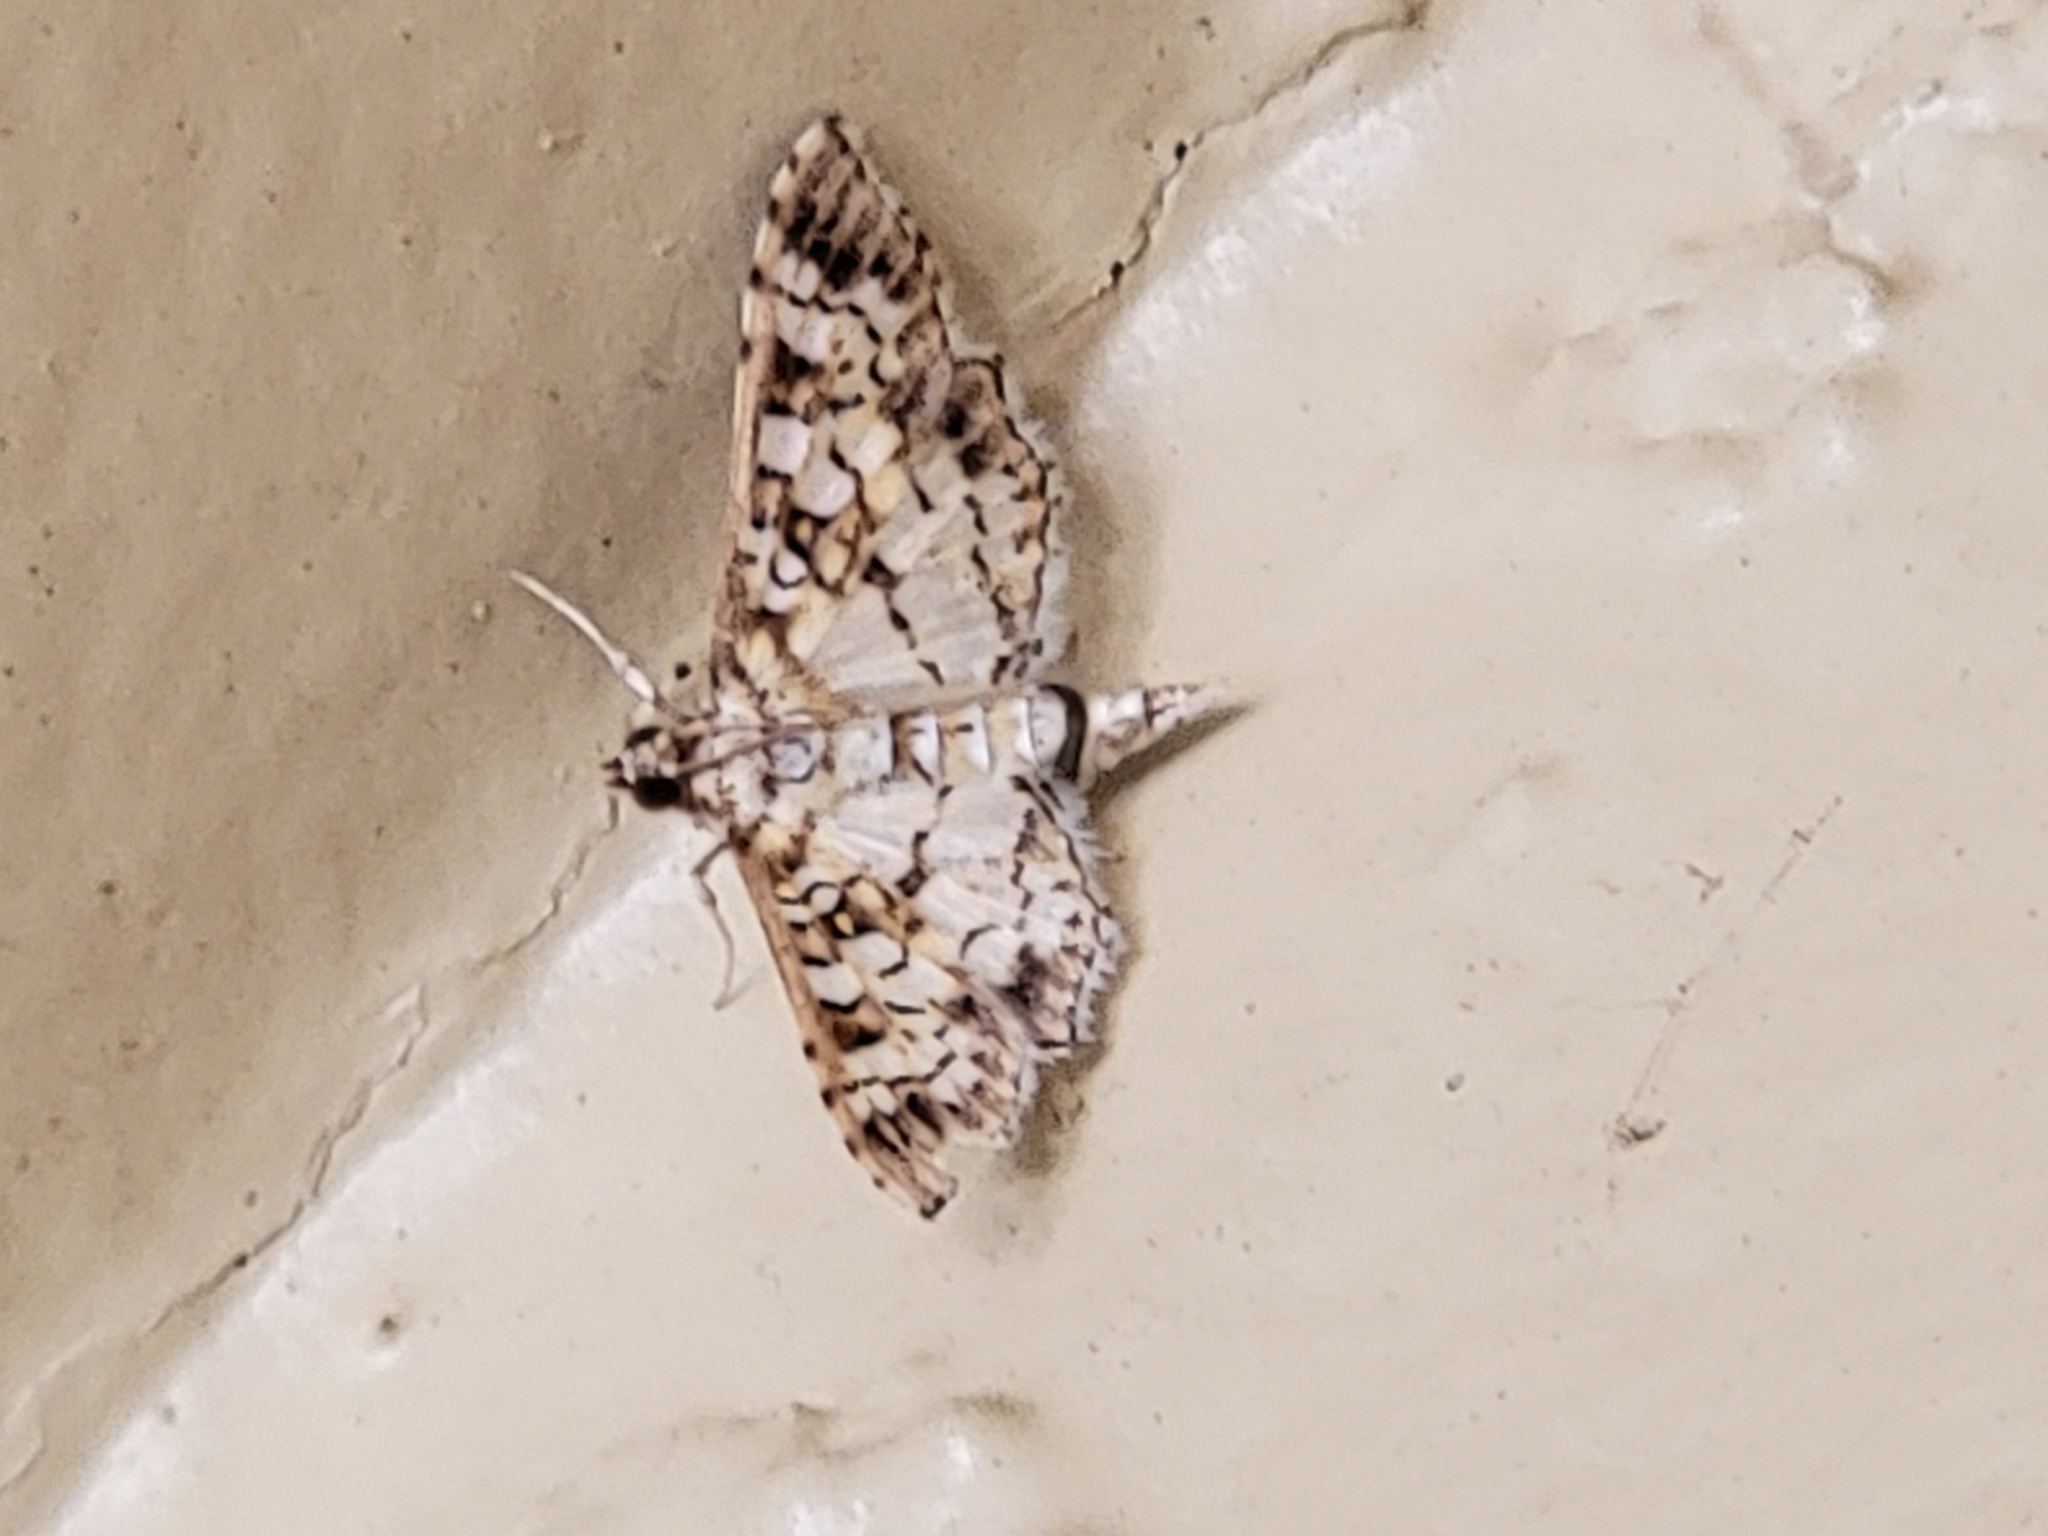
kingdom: Animalia
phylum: Arthropoda
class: Insecta
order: Lepidoptera
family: Crambidae
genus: Samea
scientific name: Samea ecclesialis
